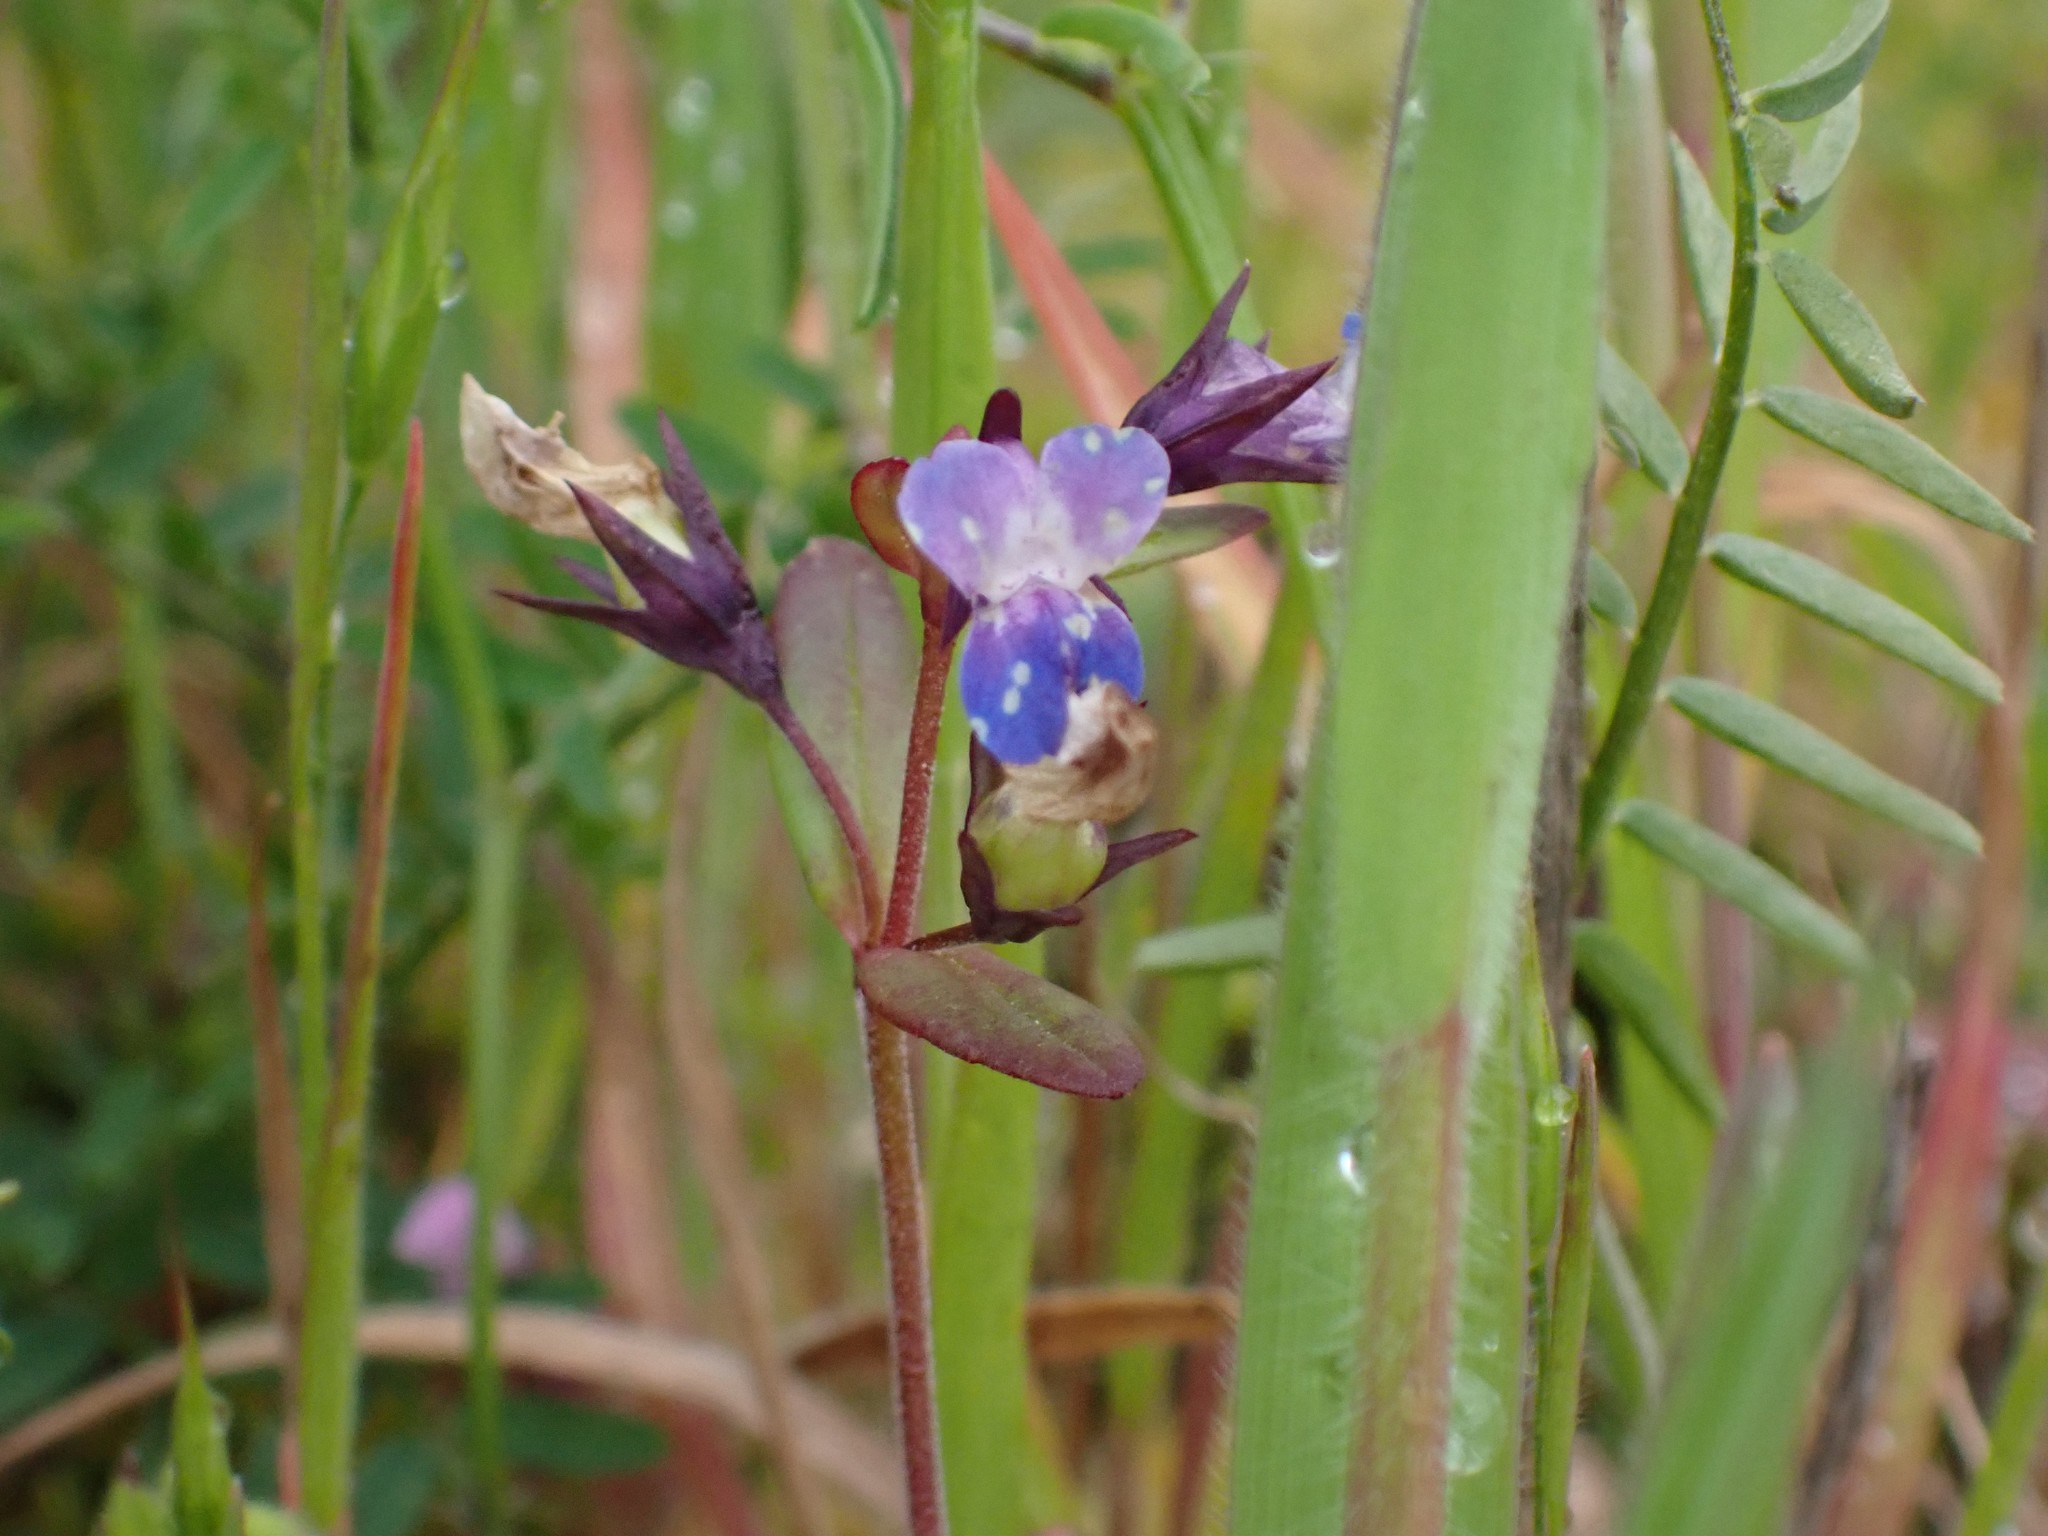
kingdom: Plantae
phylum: Tracheophyta
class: Magnoliopsida
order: Lamiales
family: Plantaginaceae
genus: Collinsia
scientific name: Collinsia parviflora
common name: Blue-lips
